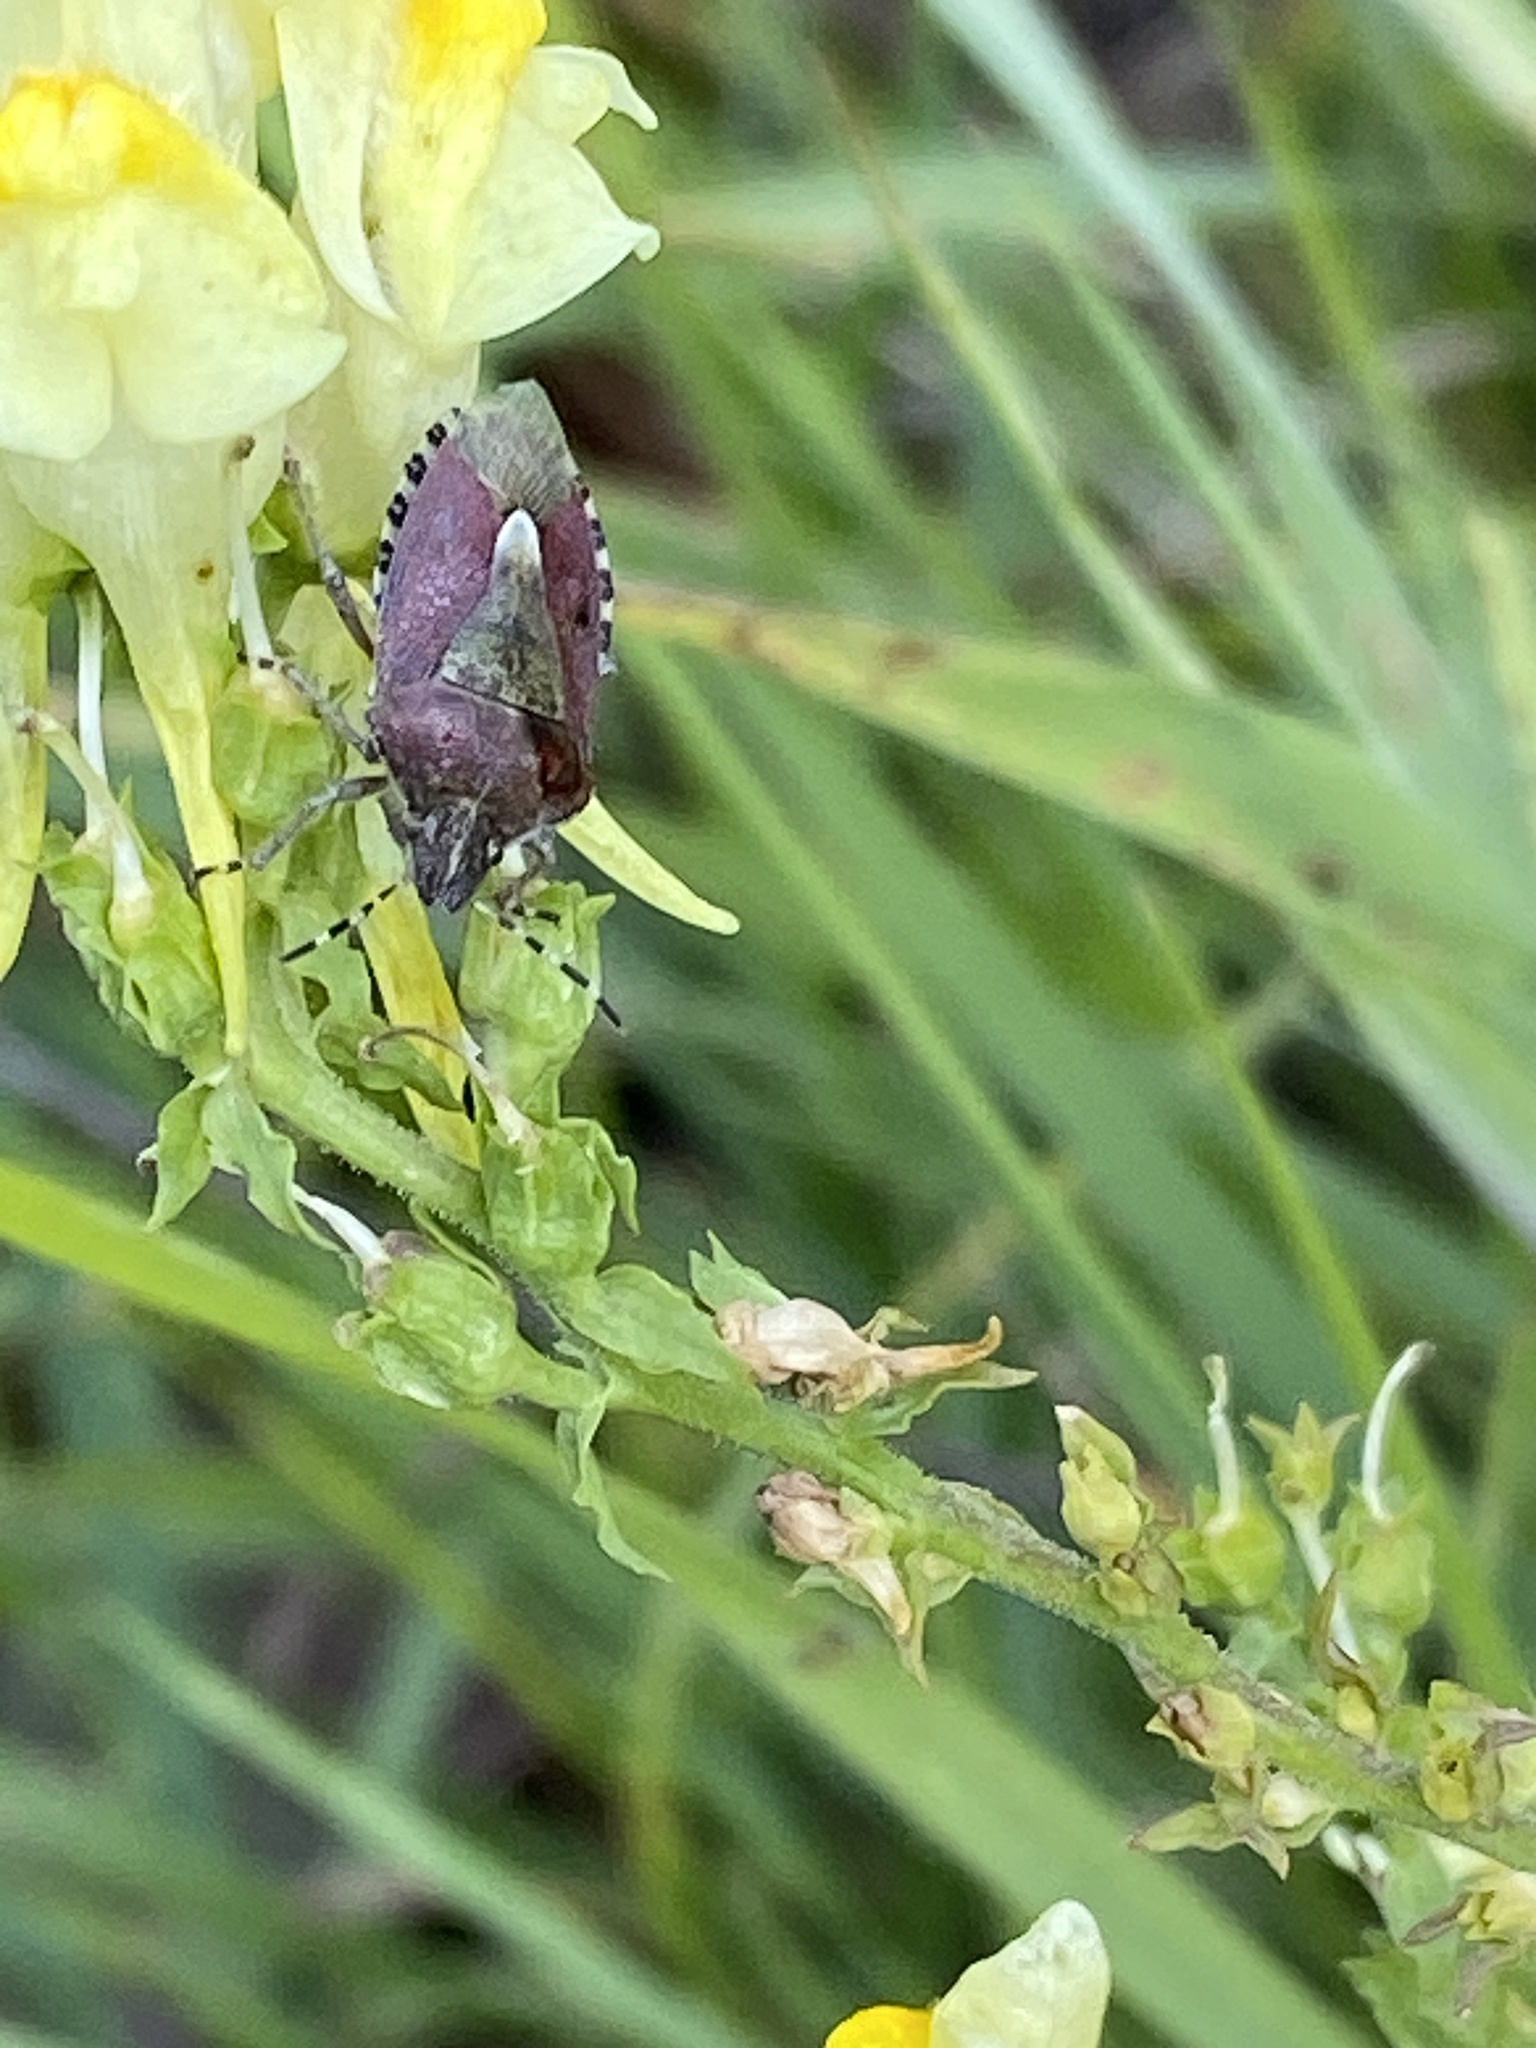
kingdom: Animalia
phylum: Arthropoda
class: Insecta
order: Hemiptera
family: Pentatomidae
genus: Dolycoris
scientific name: Dolycoris baccarum
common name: Sloe bug
